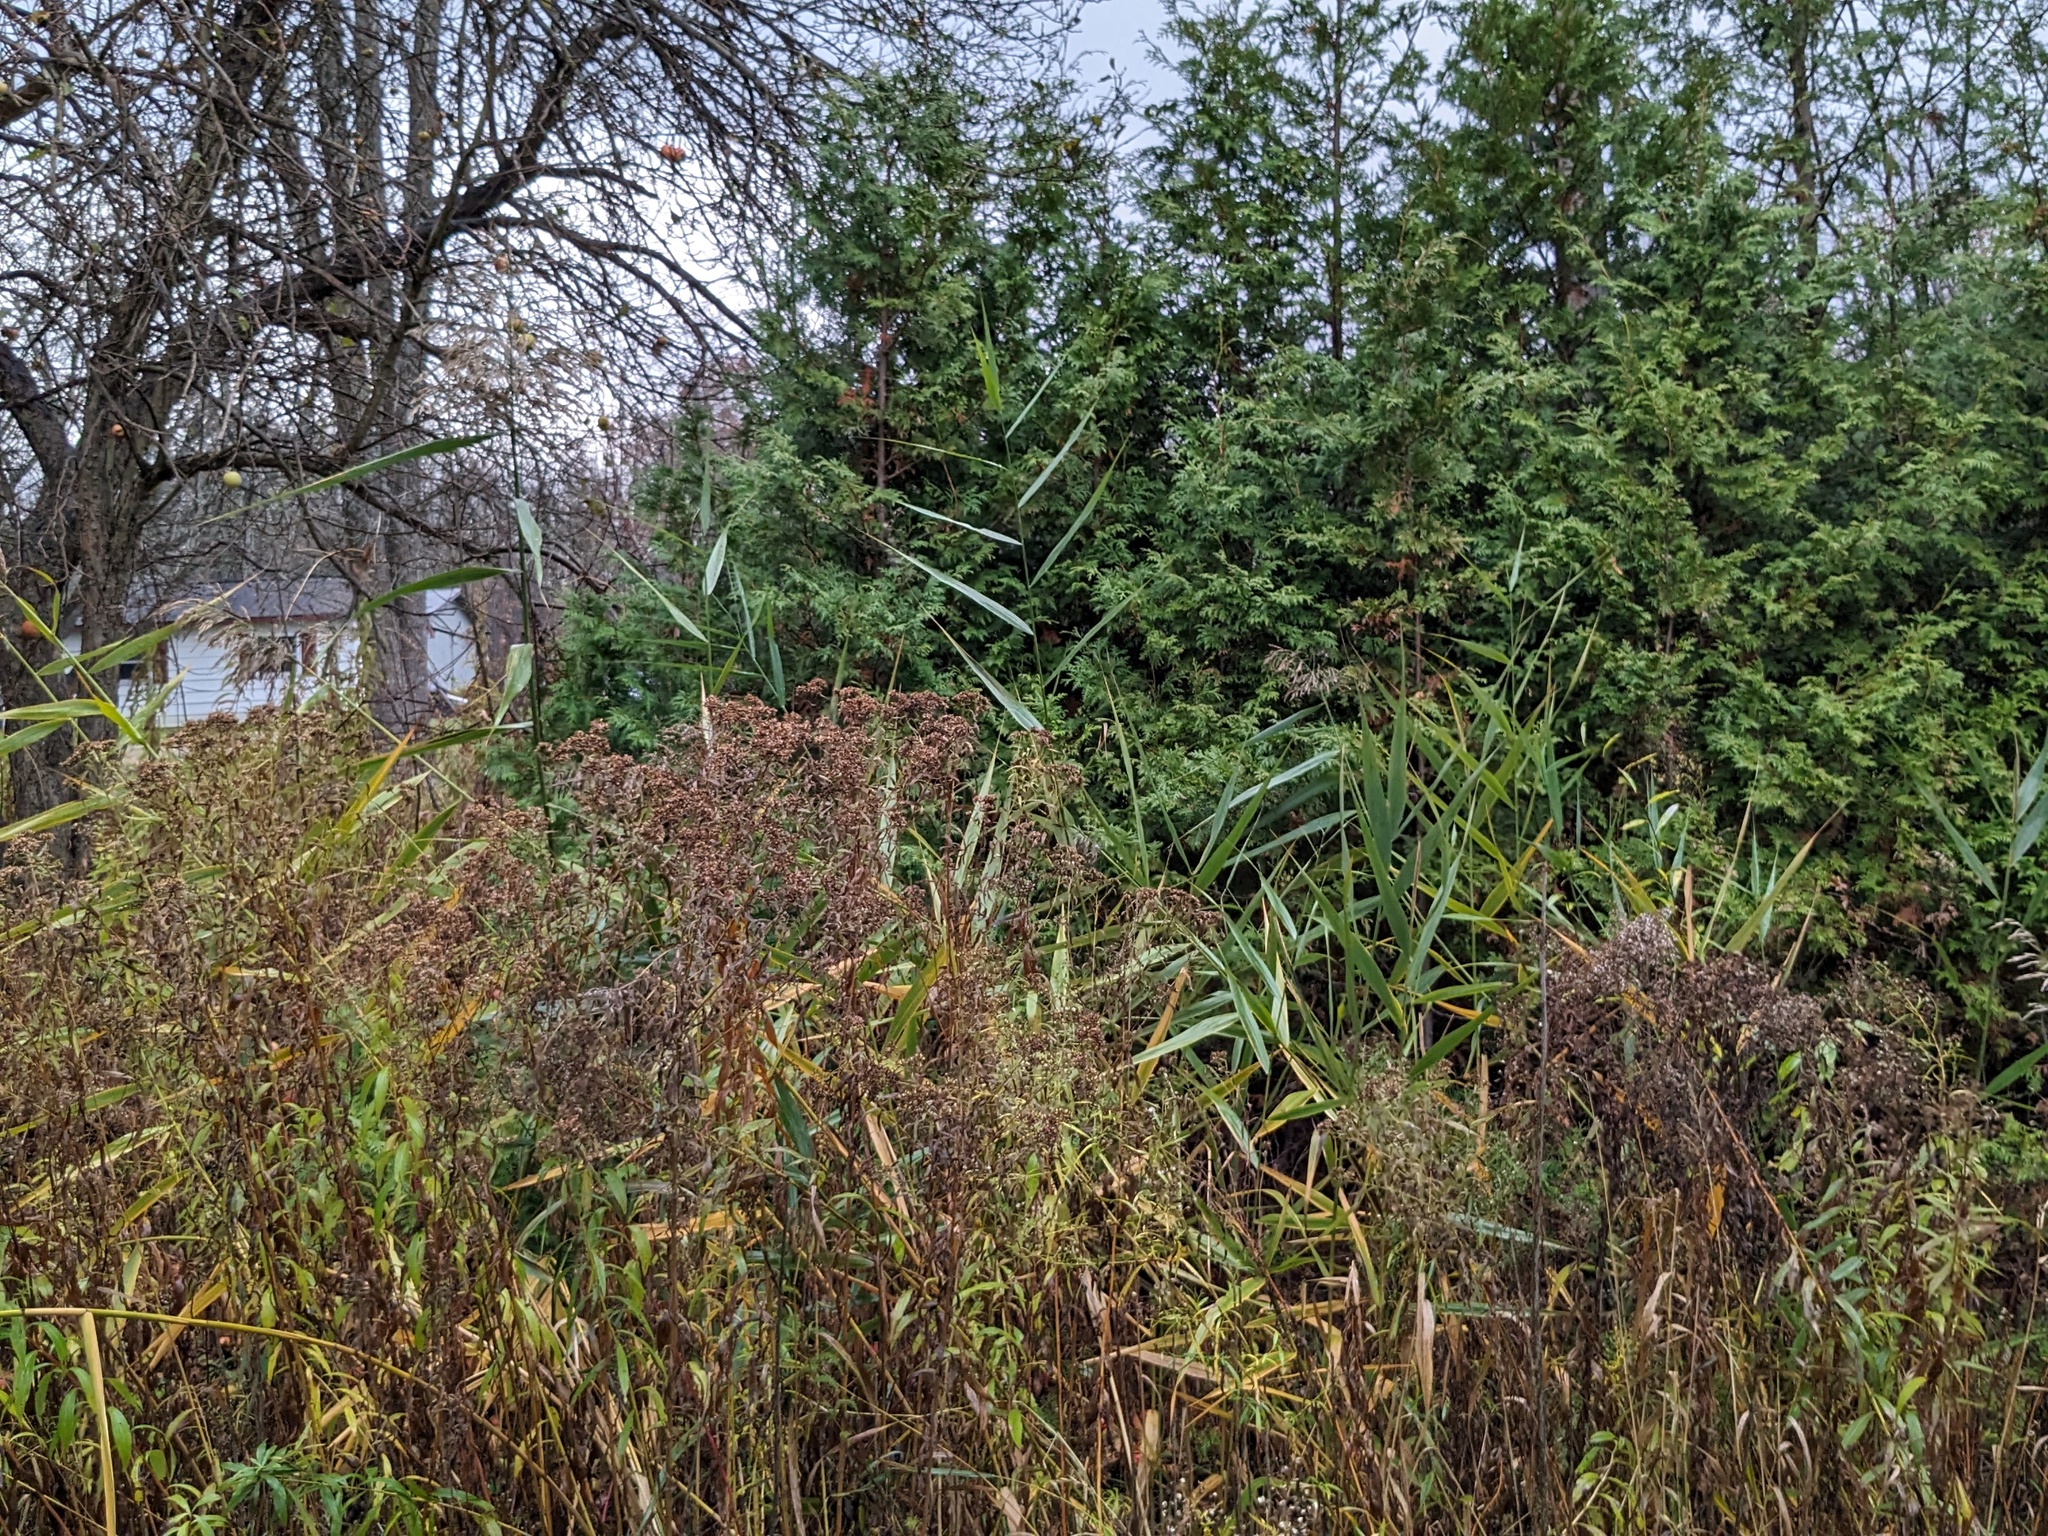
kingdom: Plantae
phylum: Tracheophyta
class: Liliopsida
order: Poales
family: Poaceae
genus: Phragmites
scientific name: Phragmites australis
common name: Common reed
